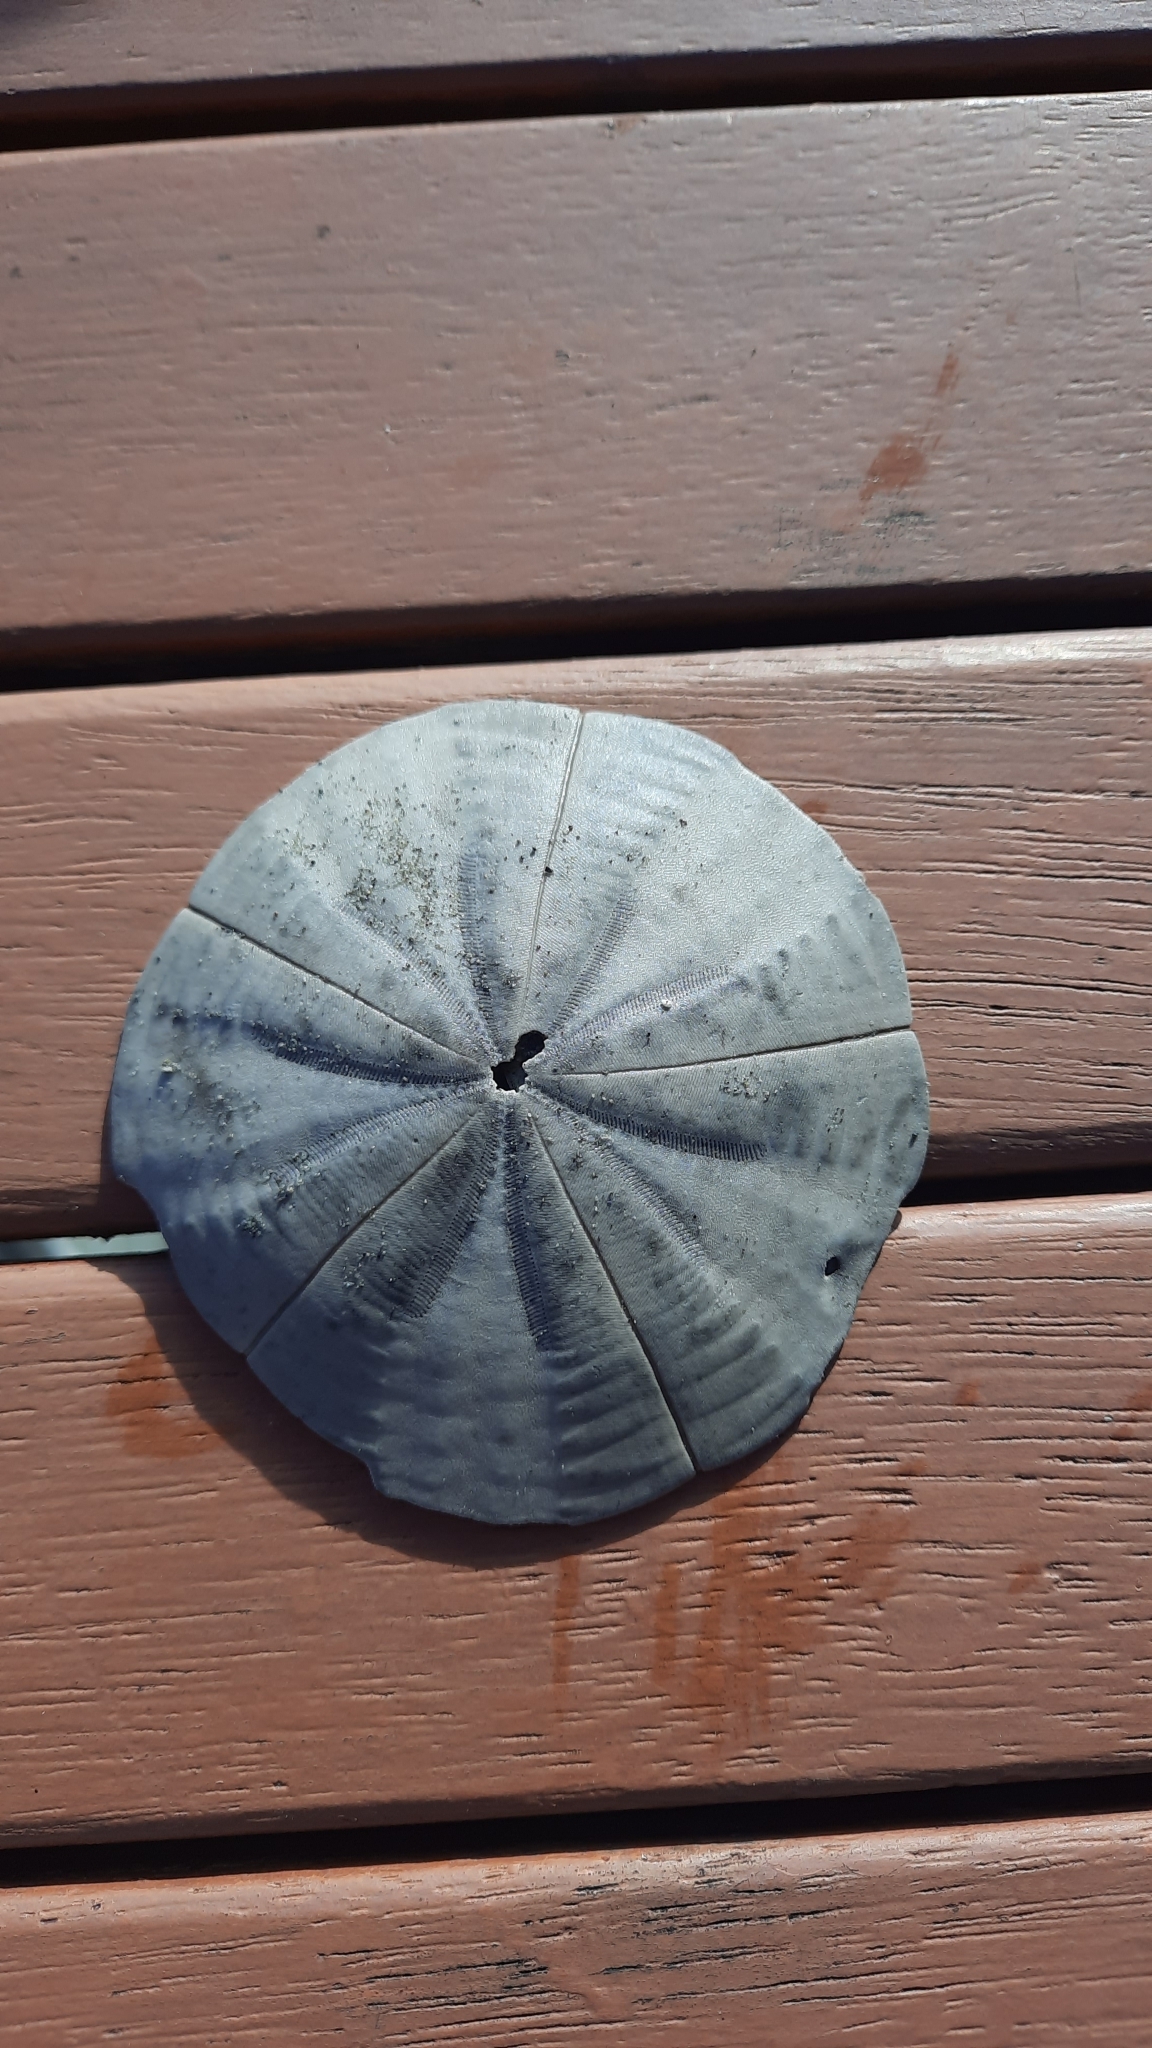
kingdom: Animalia
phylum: Echinodermata
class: Echinoidea
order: Clypeasteroida
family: Clypeasteridae
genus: Fellaster
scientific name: Fellaster zelandiae
